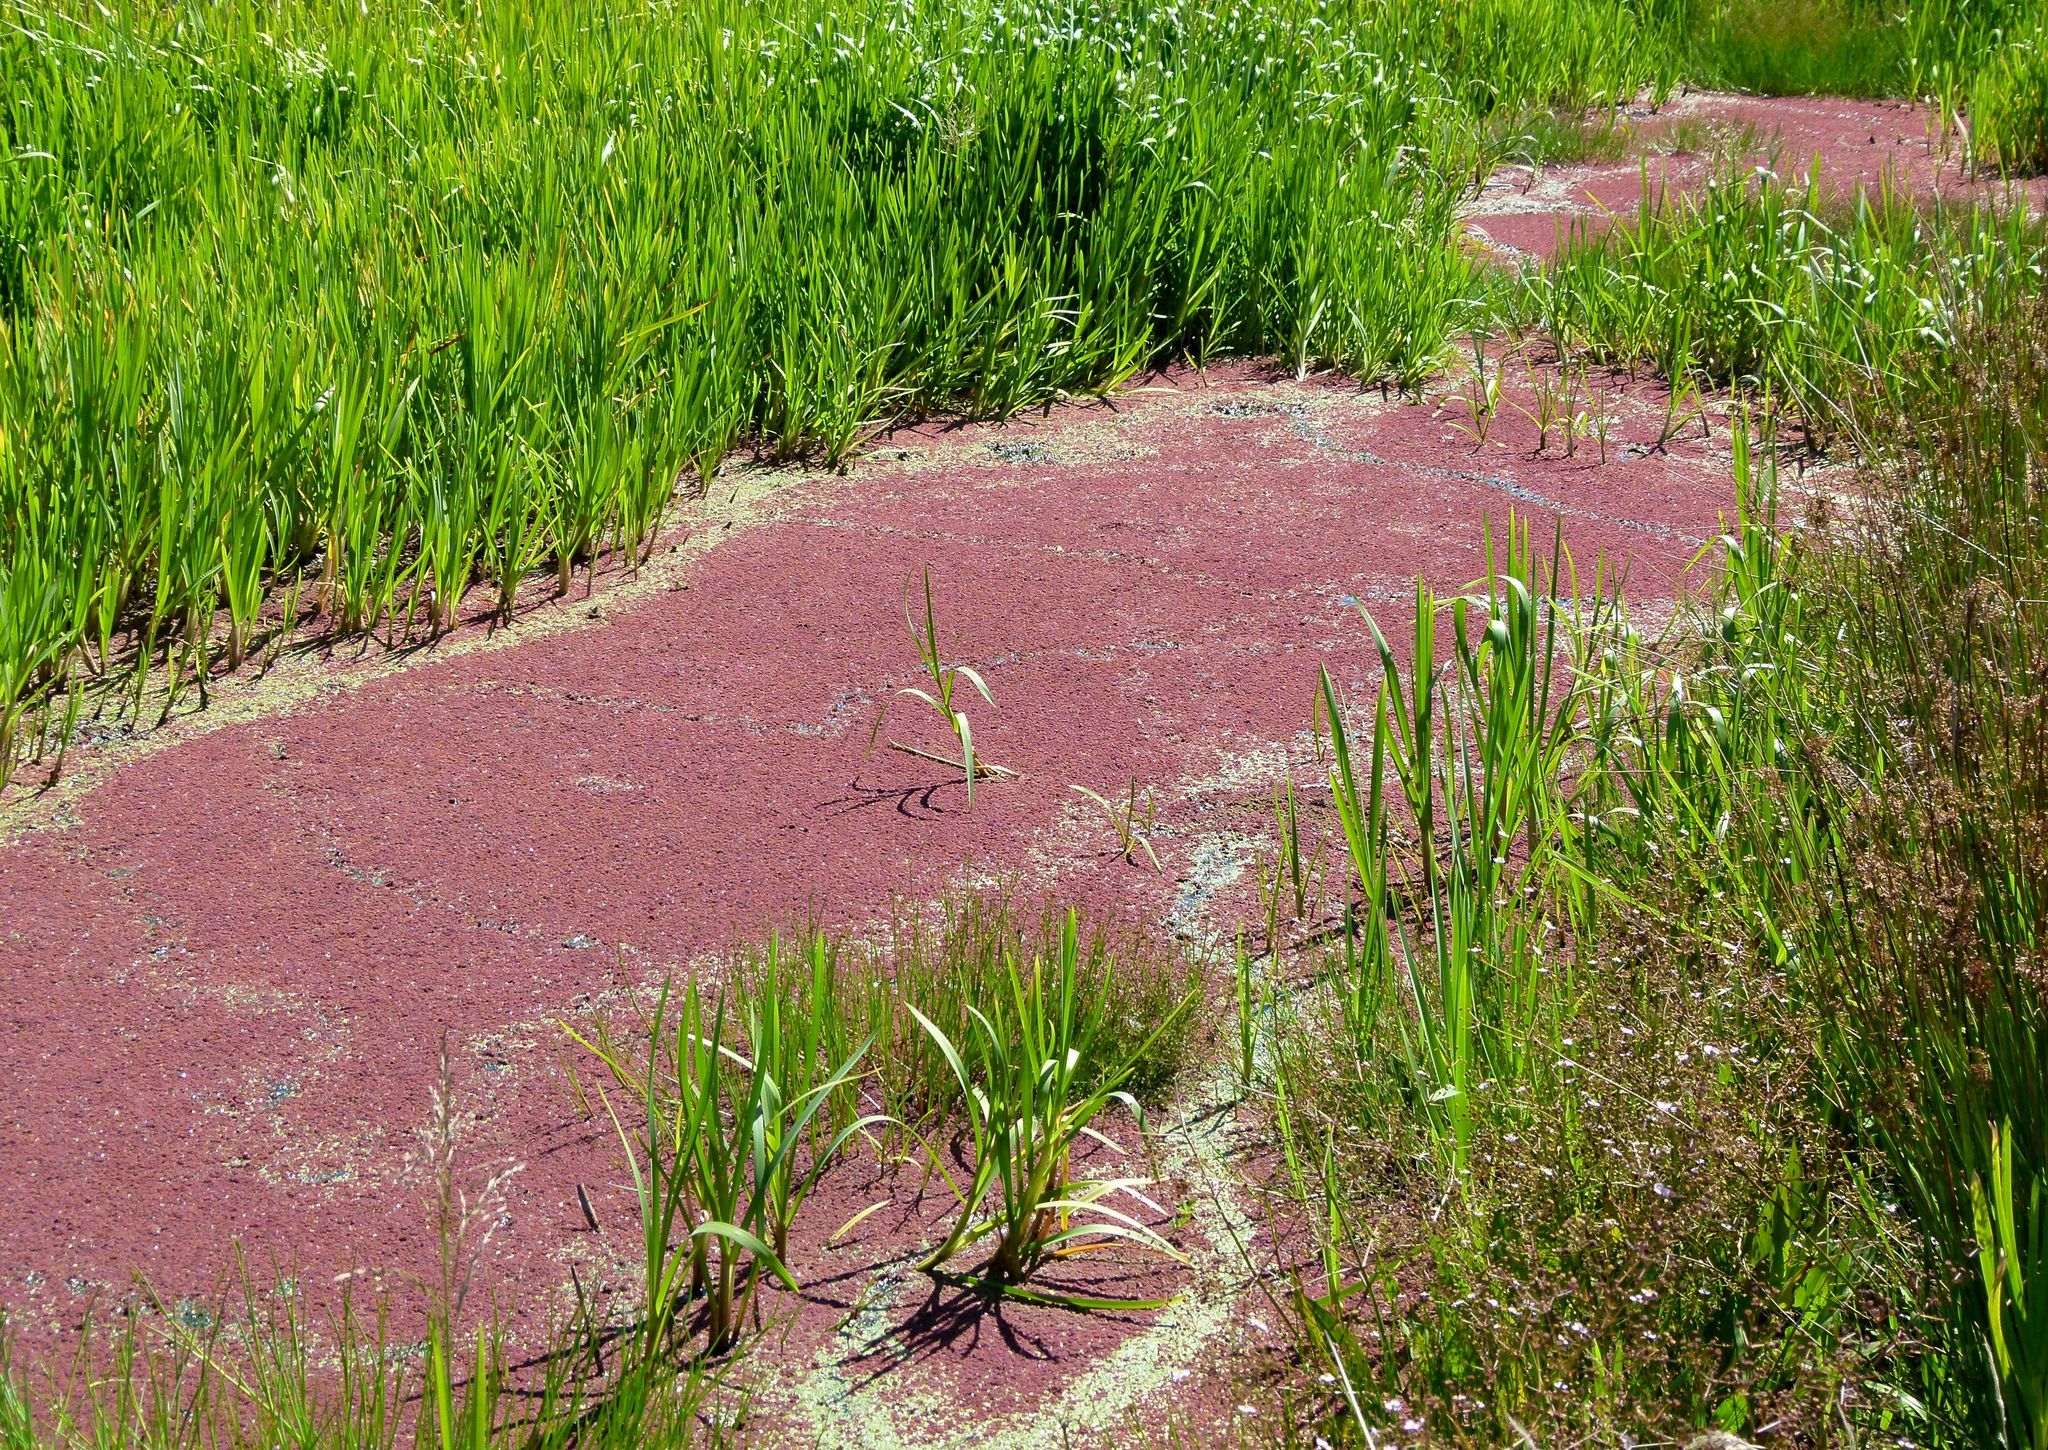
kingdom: Plantae
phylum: Tracheophyta
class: Polypodiopsida
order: Salviniales
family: Salviniaceae
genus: Azolla
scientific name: Azolla rubra
